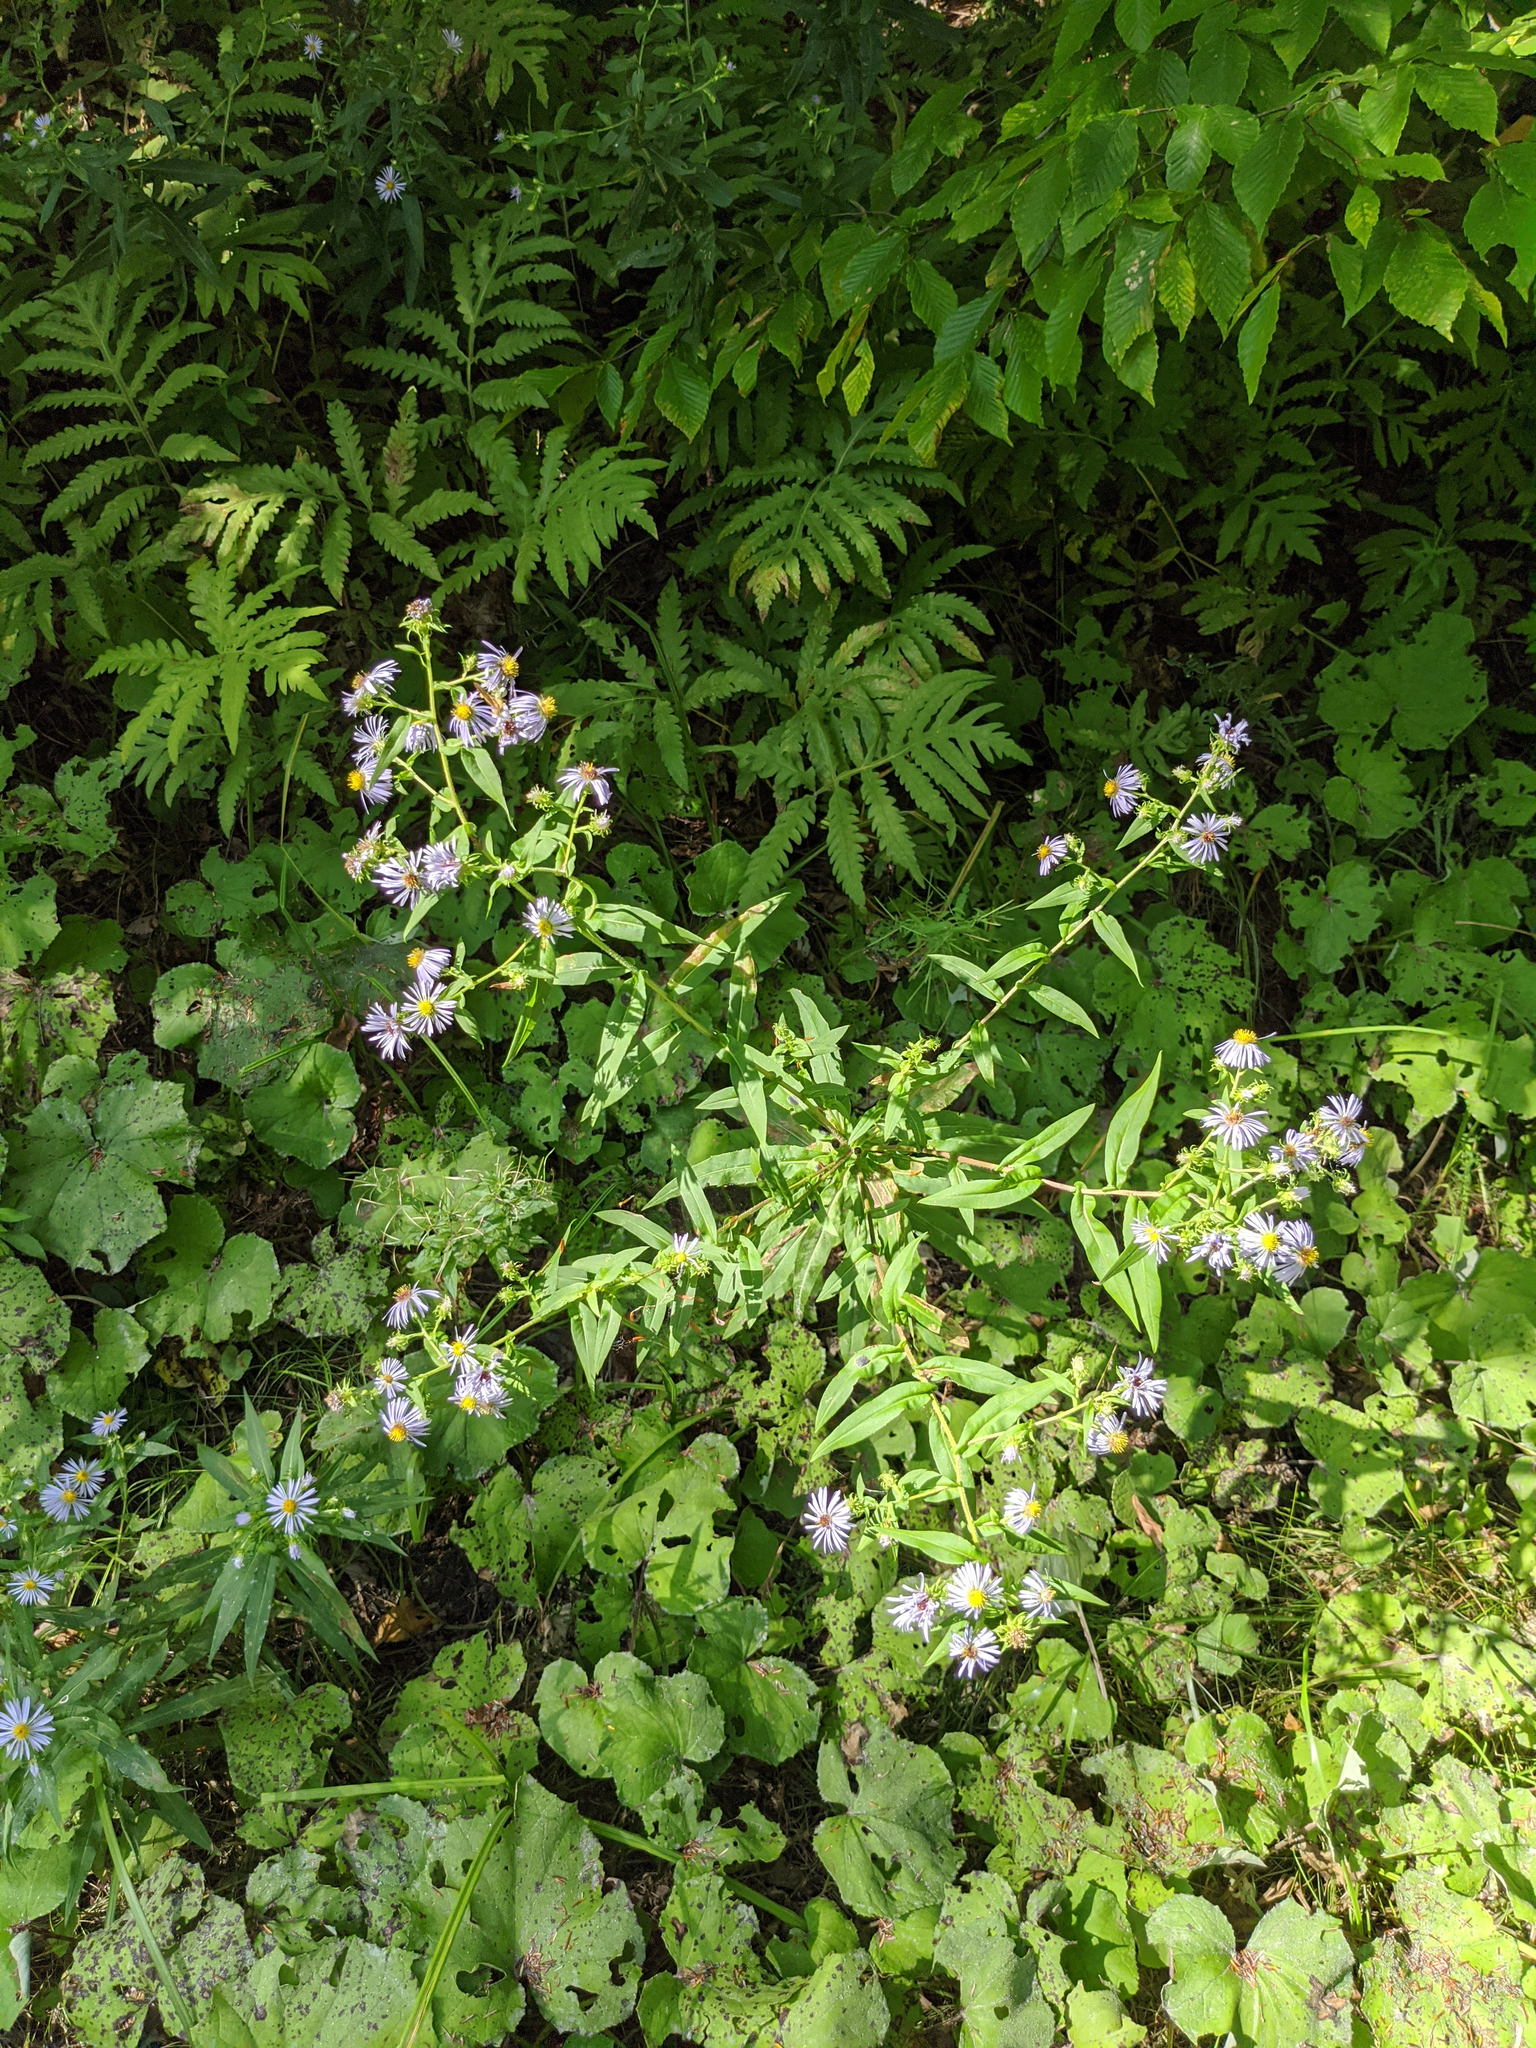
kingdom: Plantae
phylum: Tracheophyta
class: Magnoliopsida
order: Fagales
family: Fagaceae
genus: Fagus
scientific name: Fagus grandifolia
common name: American beech
